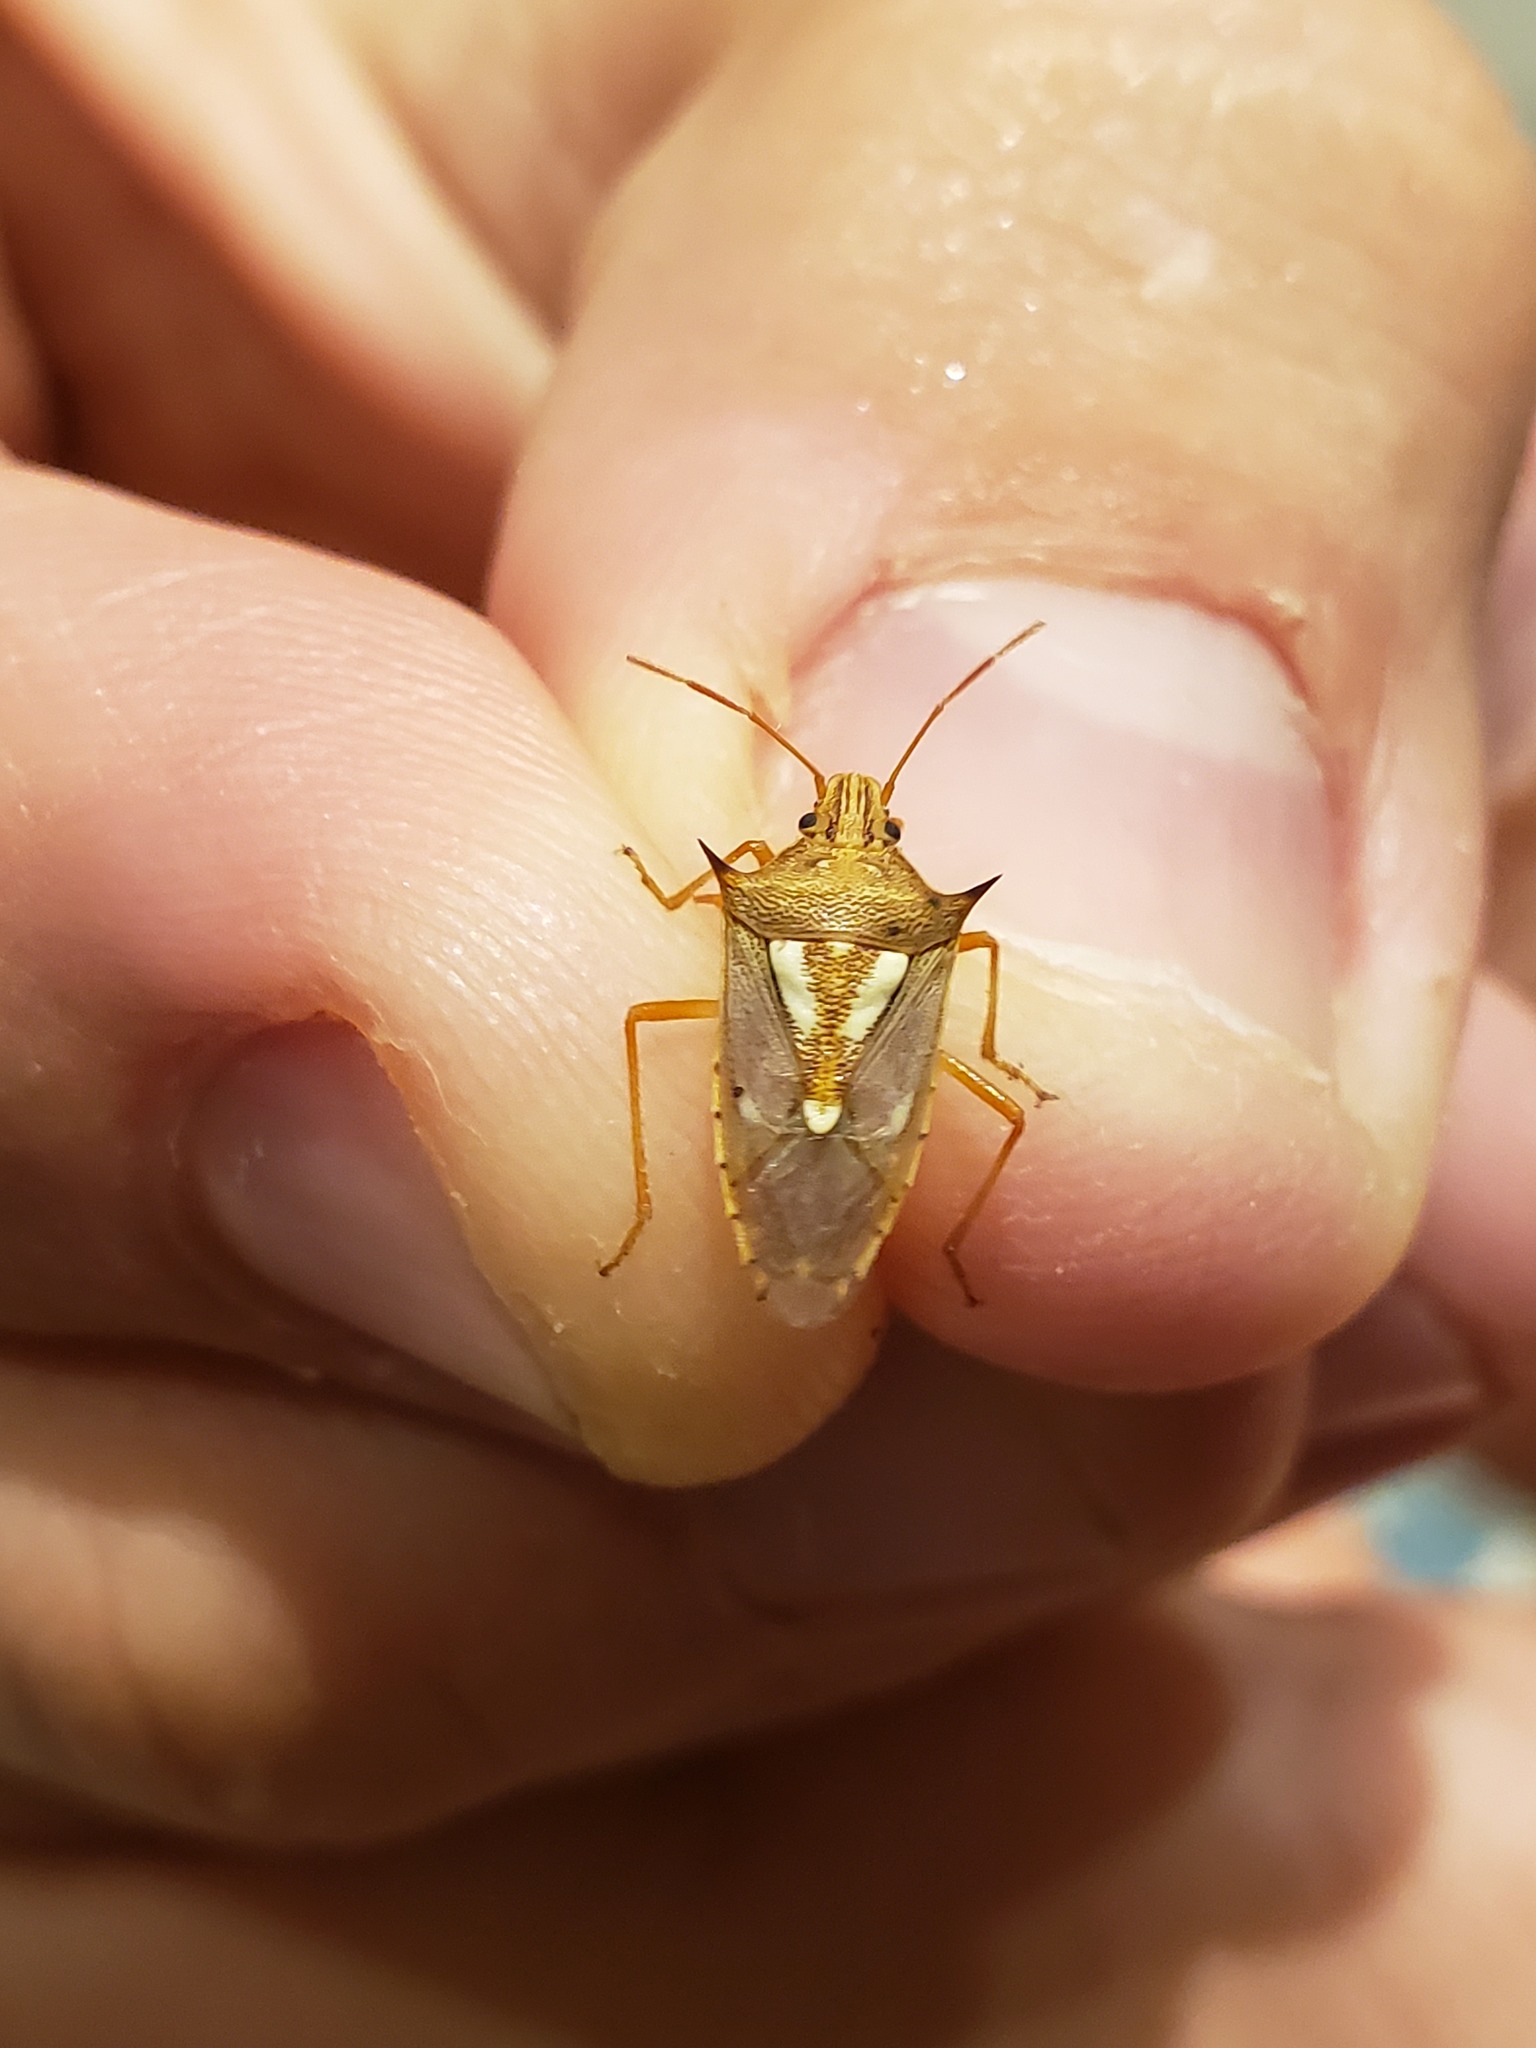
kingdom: Animalia
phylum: Arthropoda
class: Insecta
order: Hemiptera
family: Pentatomidae
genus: Oebalus
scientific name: Oebalus ypsilongriseus
